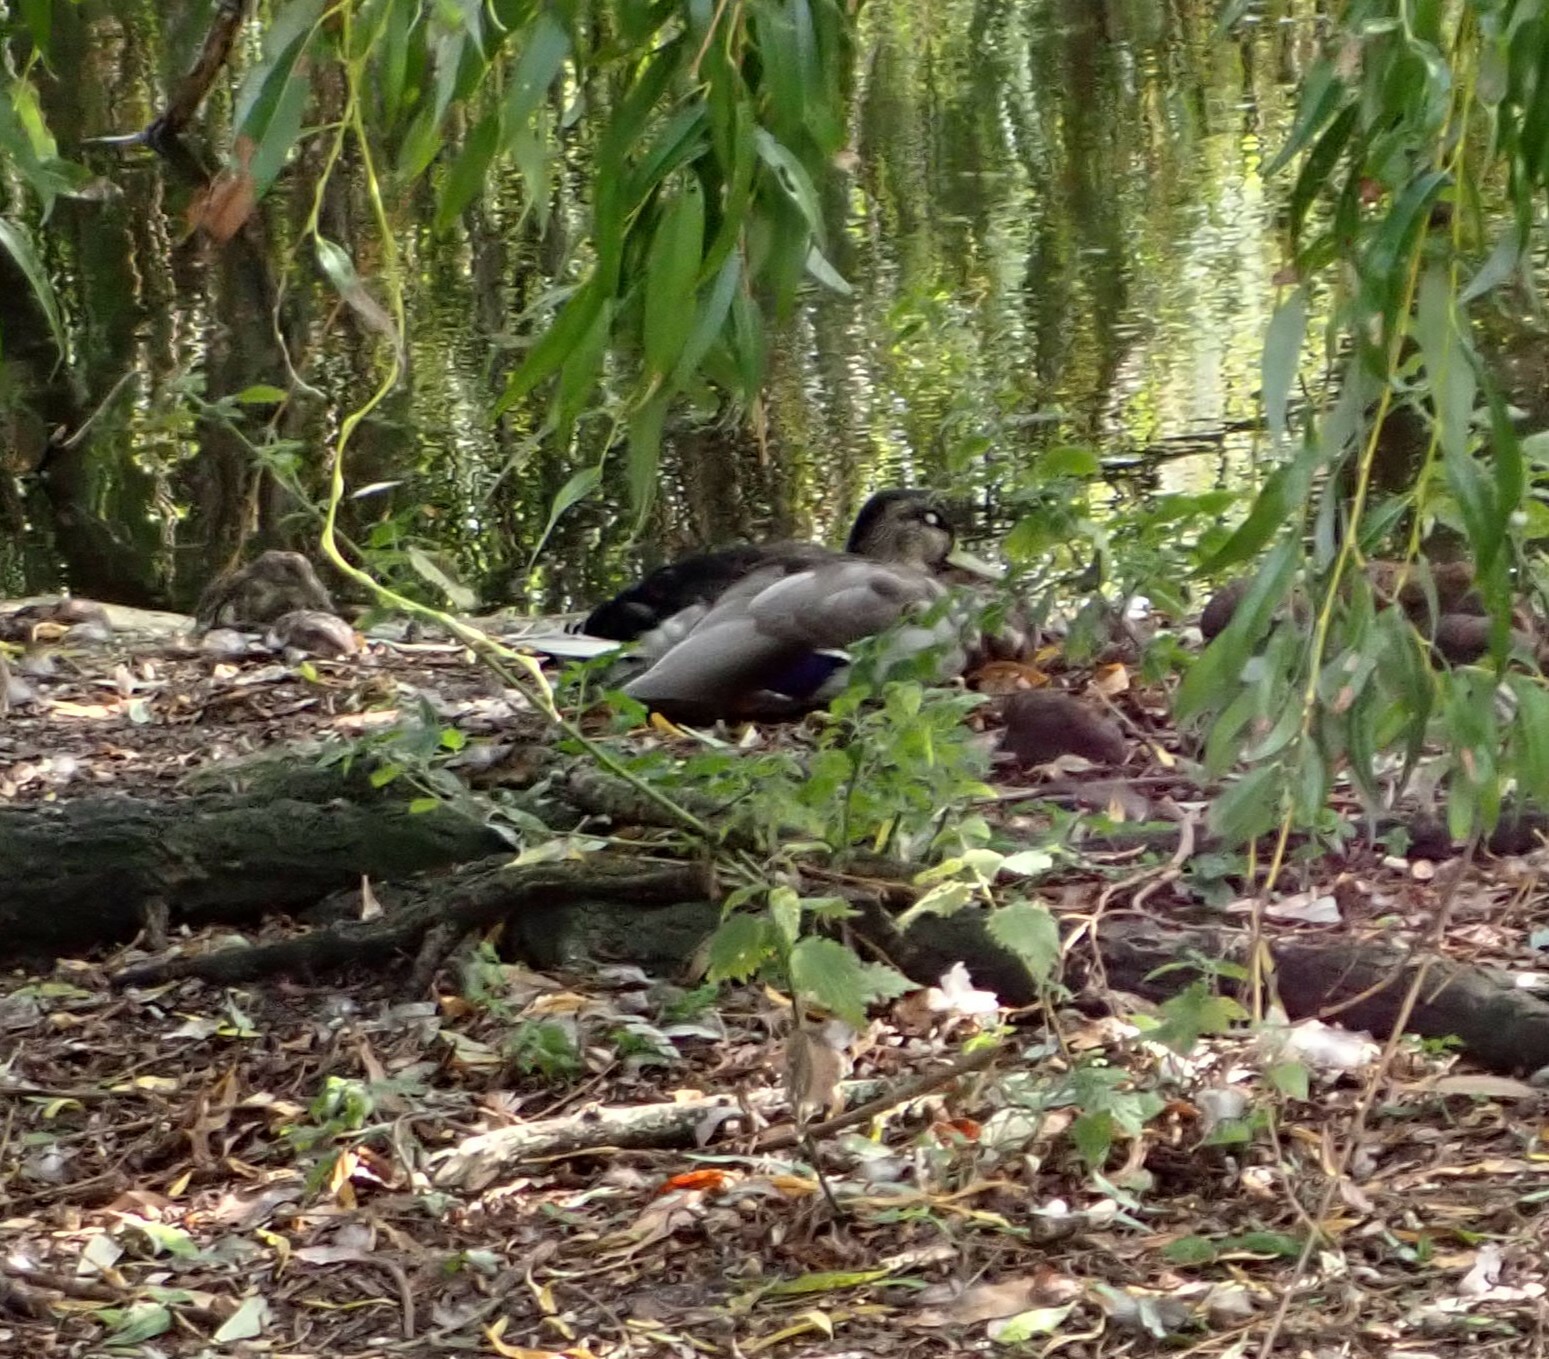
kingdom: Animalia
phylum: Chordata
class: Aves
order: Anseriformes
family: Anatidae
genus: Anas
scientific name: Anas platyrhynchos
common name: Mallard
